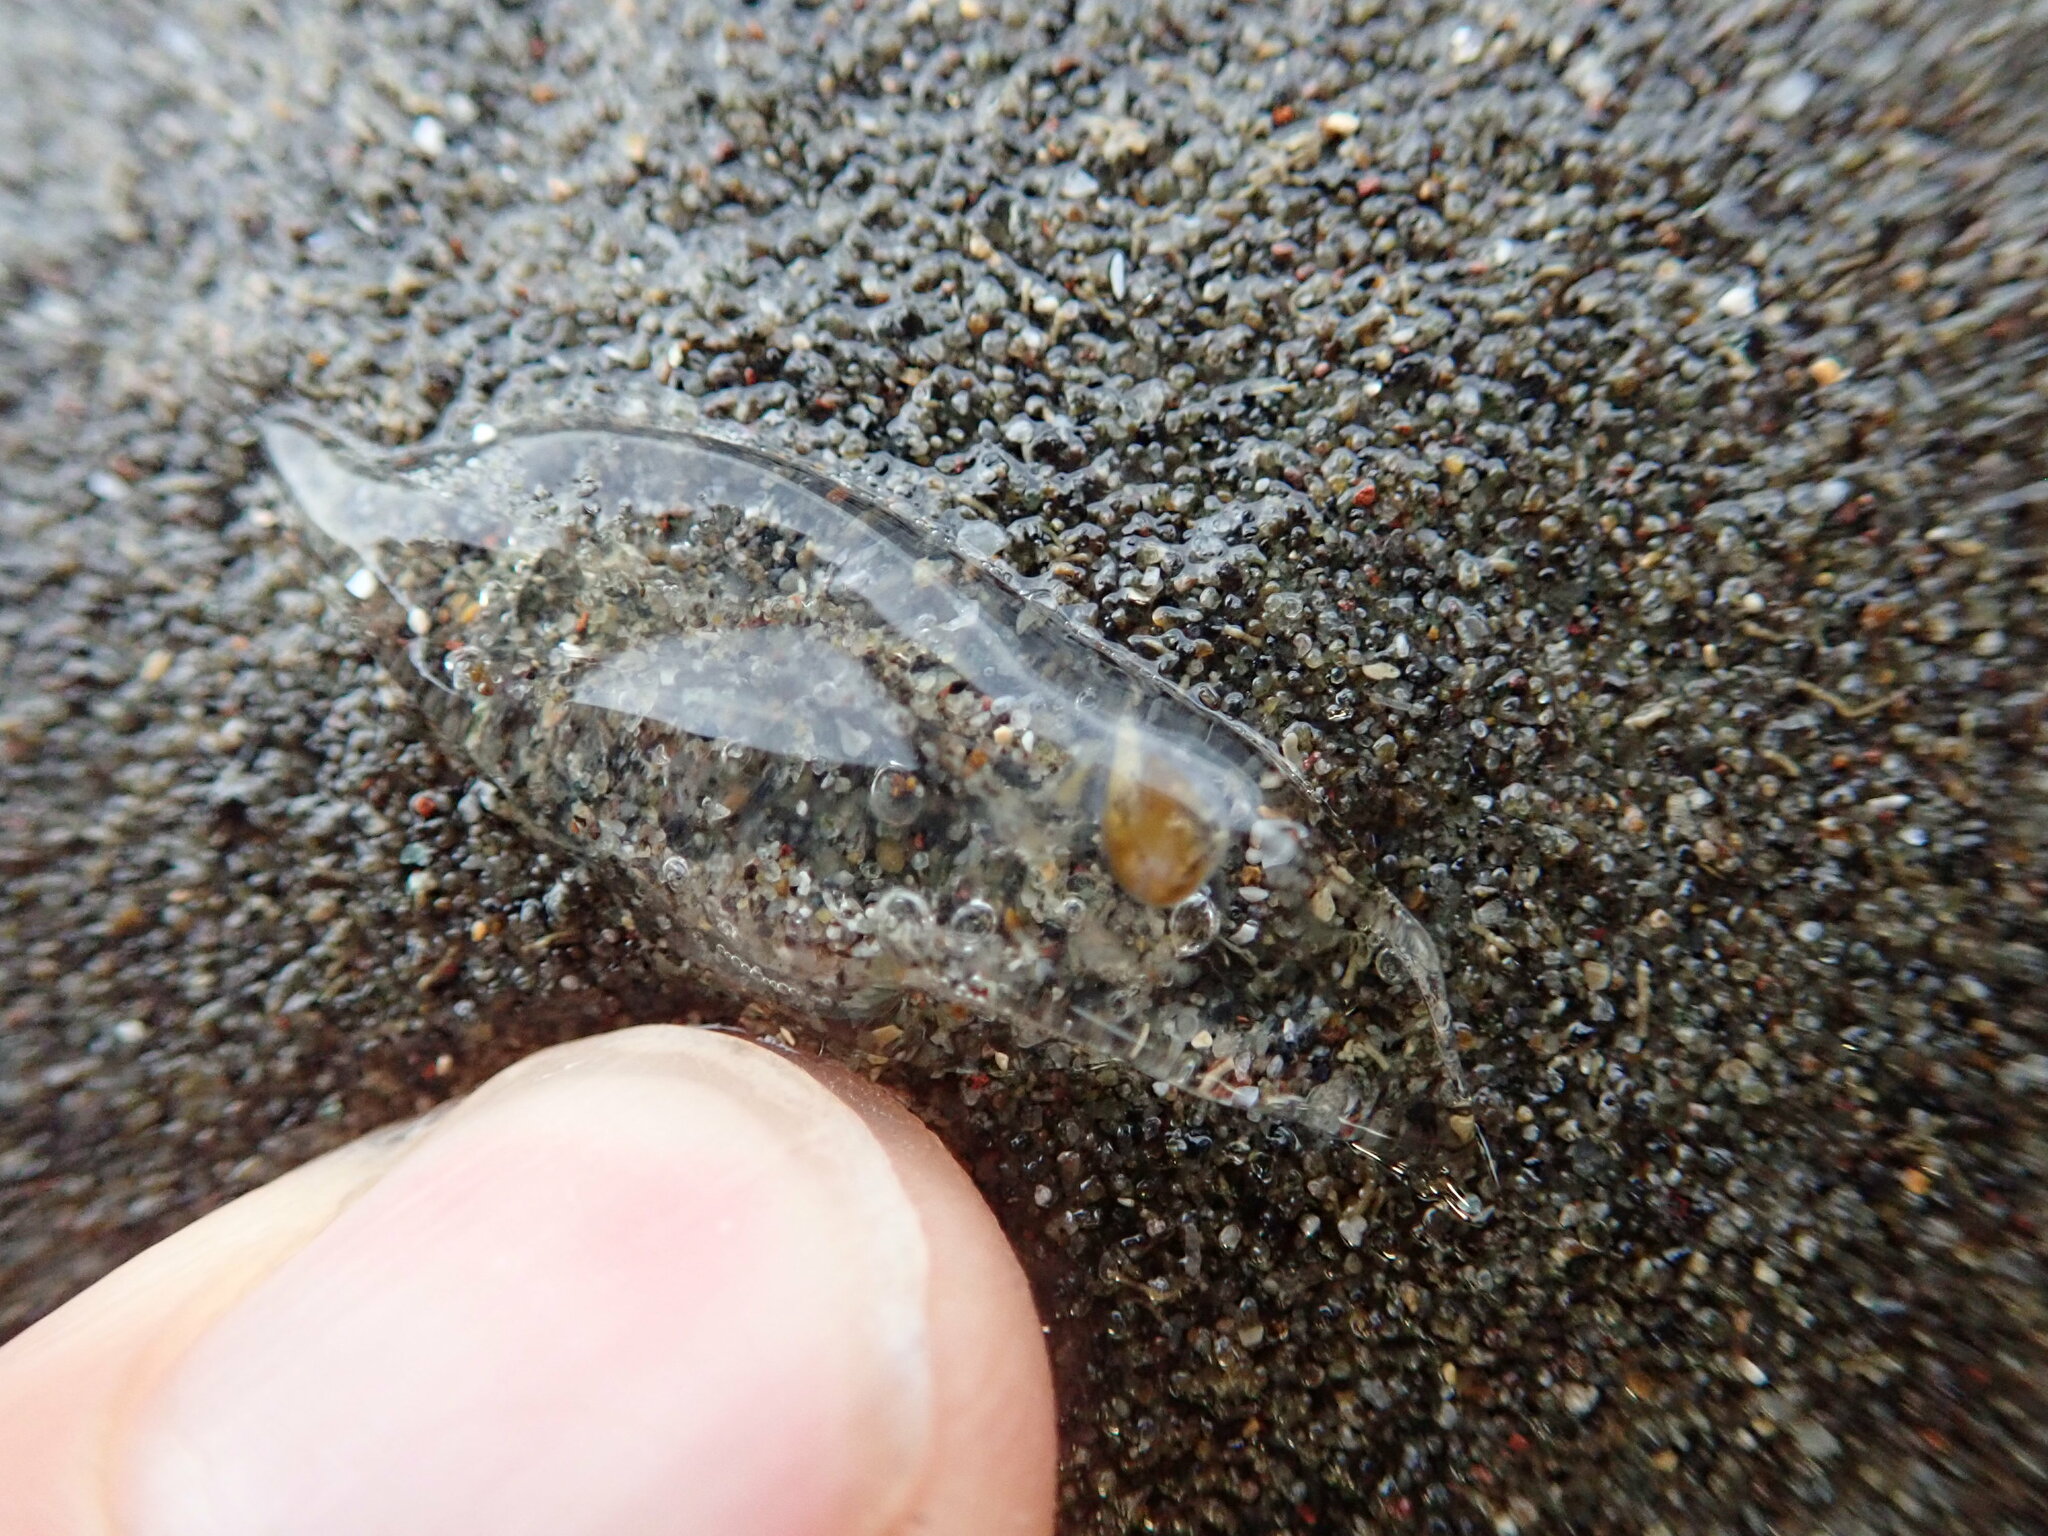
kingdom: Animalia
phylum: Chordata
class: Thaliacea
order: Salpida
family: Salpidae
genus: Soestia
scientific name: Soestia zonaria
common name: Deepsea solitary salp
